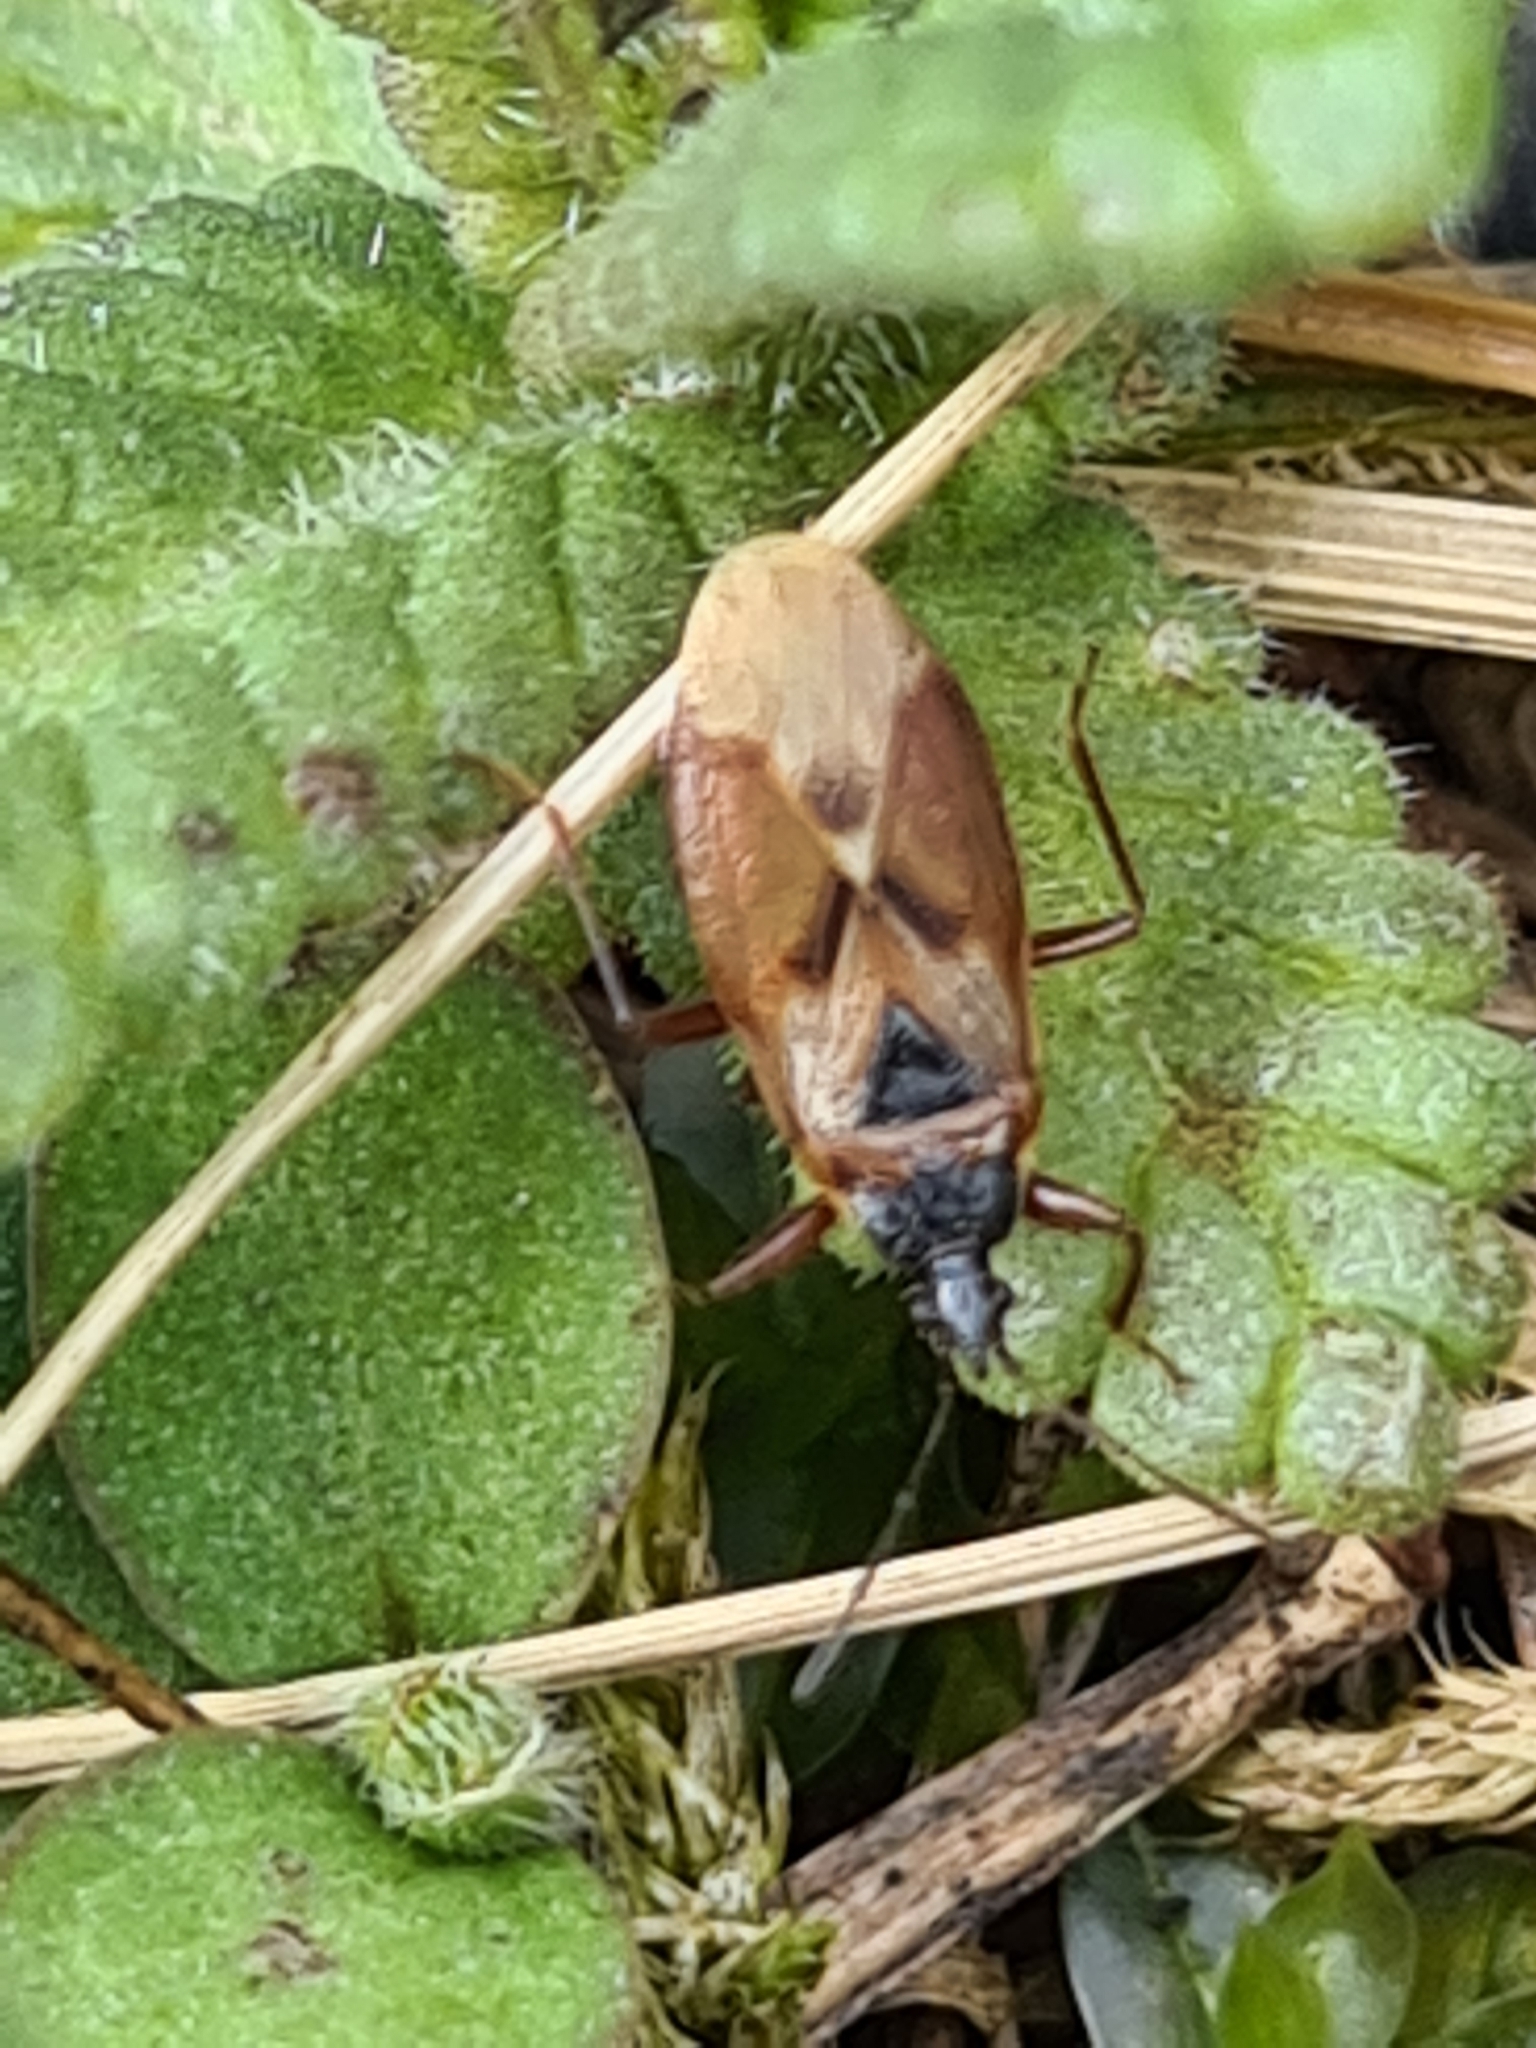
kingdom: Animalia
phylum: Arthropoda
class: Insecta
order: Hemiptera
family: Rhyparochromidae
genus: Gastrodes
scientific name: Gastrodes abietum
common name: Spruce cone bug
